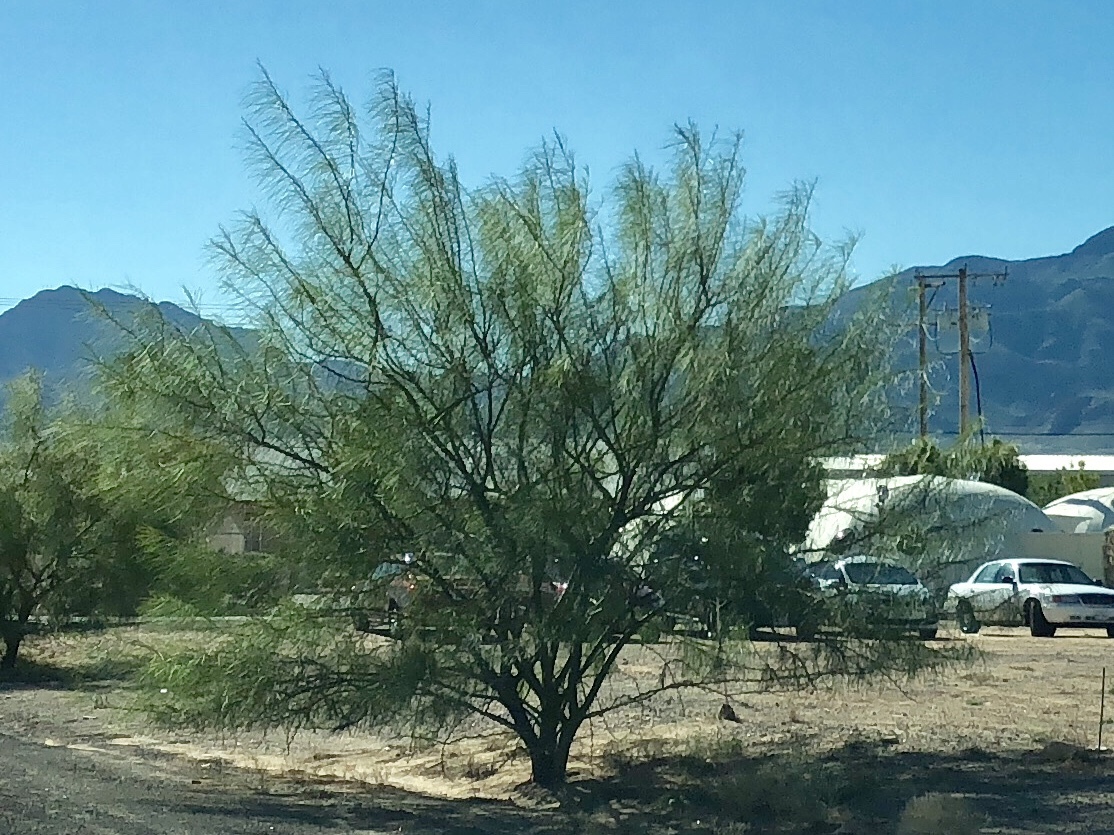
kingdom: Plantae
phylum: Tracheophyta
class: Magnoliopsida
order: Fabales
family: Fabaceae
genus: Parkinsonia
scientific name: Parkinsonia aculeata
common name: Jerusalem thorn
